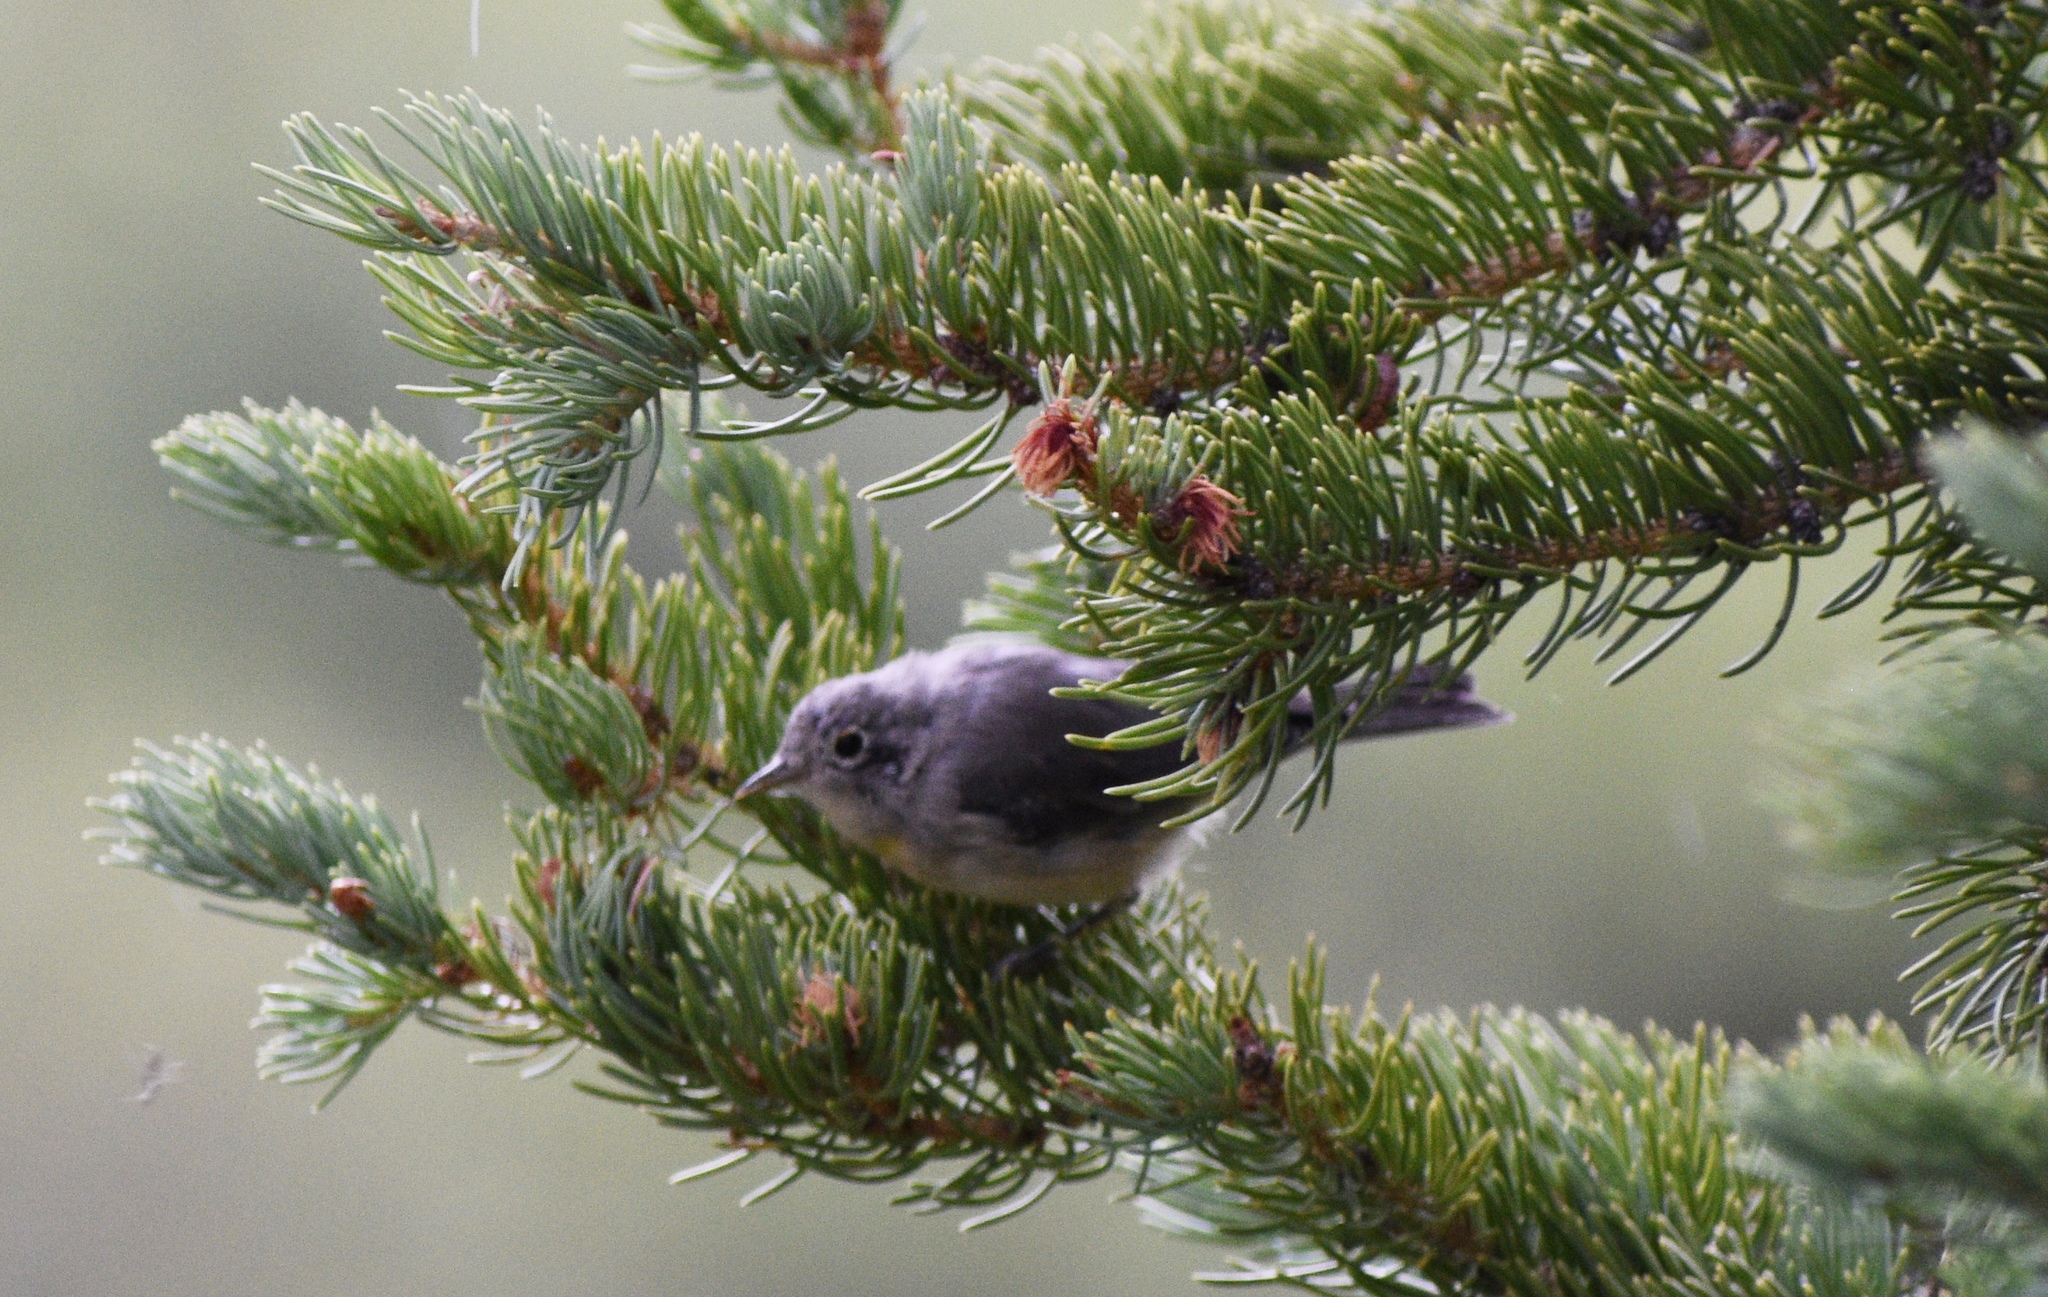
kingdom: Animalia
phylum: Chordata
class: Aves
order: Passeriformes
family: Parulidae
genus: Leiothlypis
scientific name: Leiothlypis virginiae
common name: Virginia's warbler
